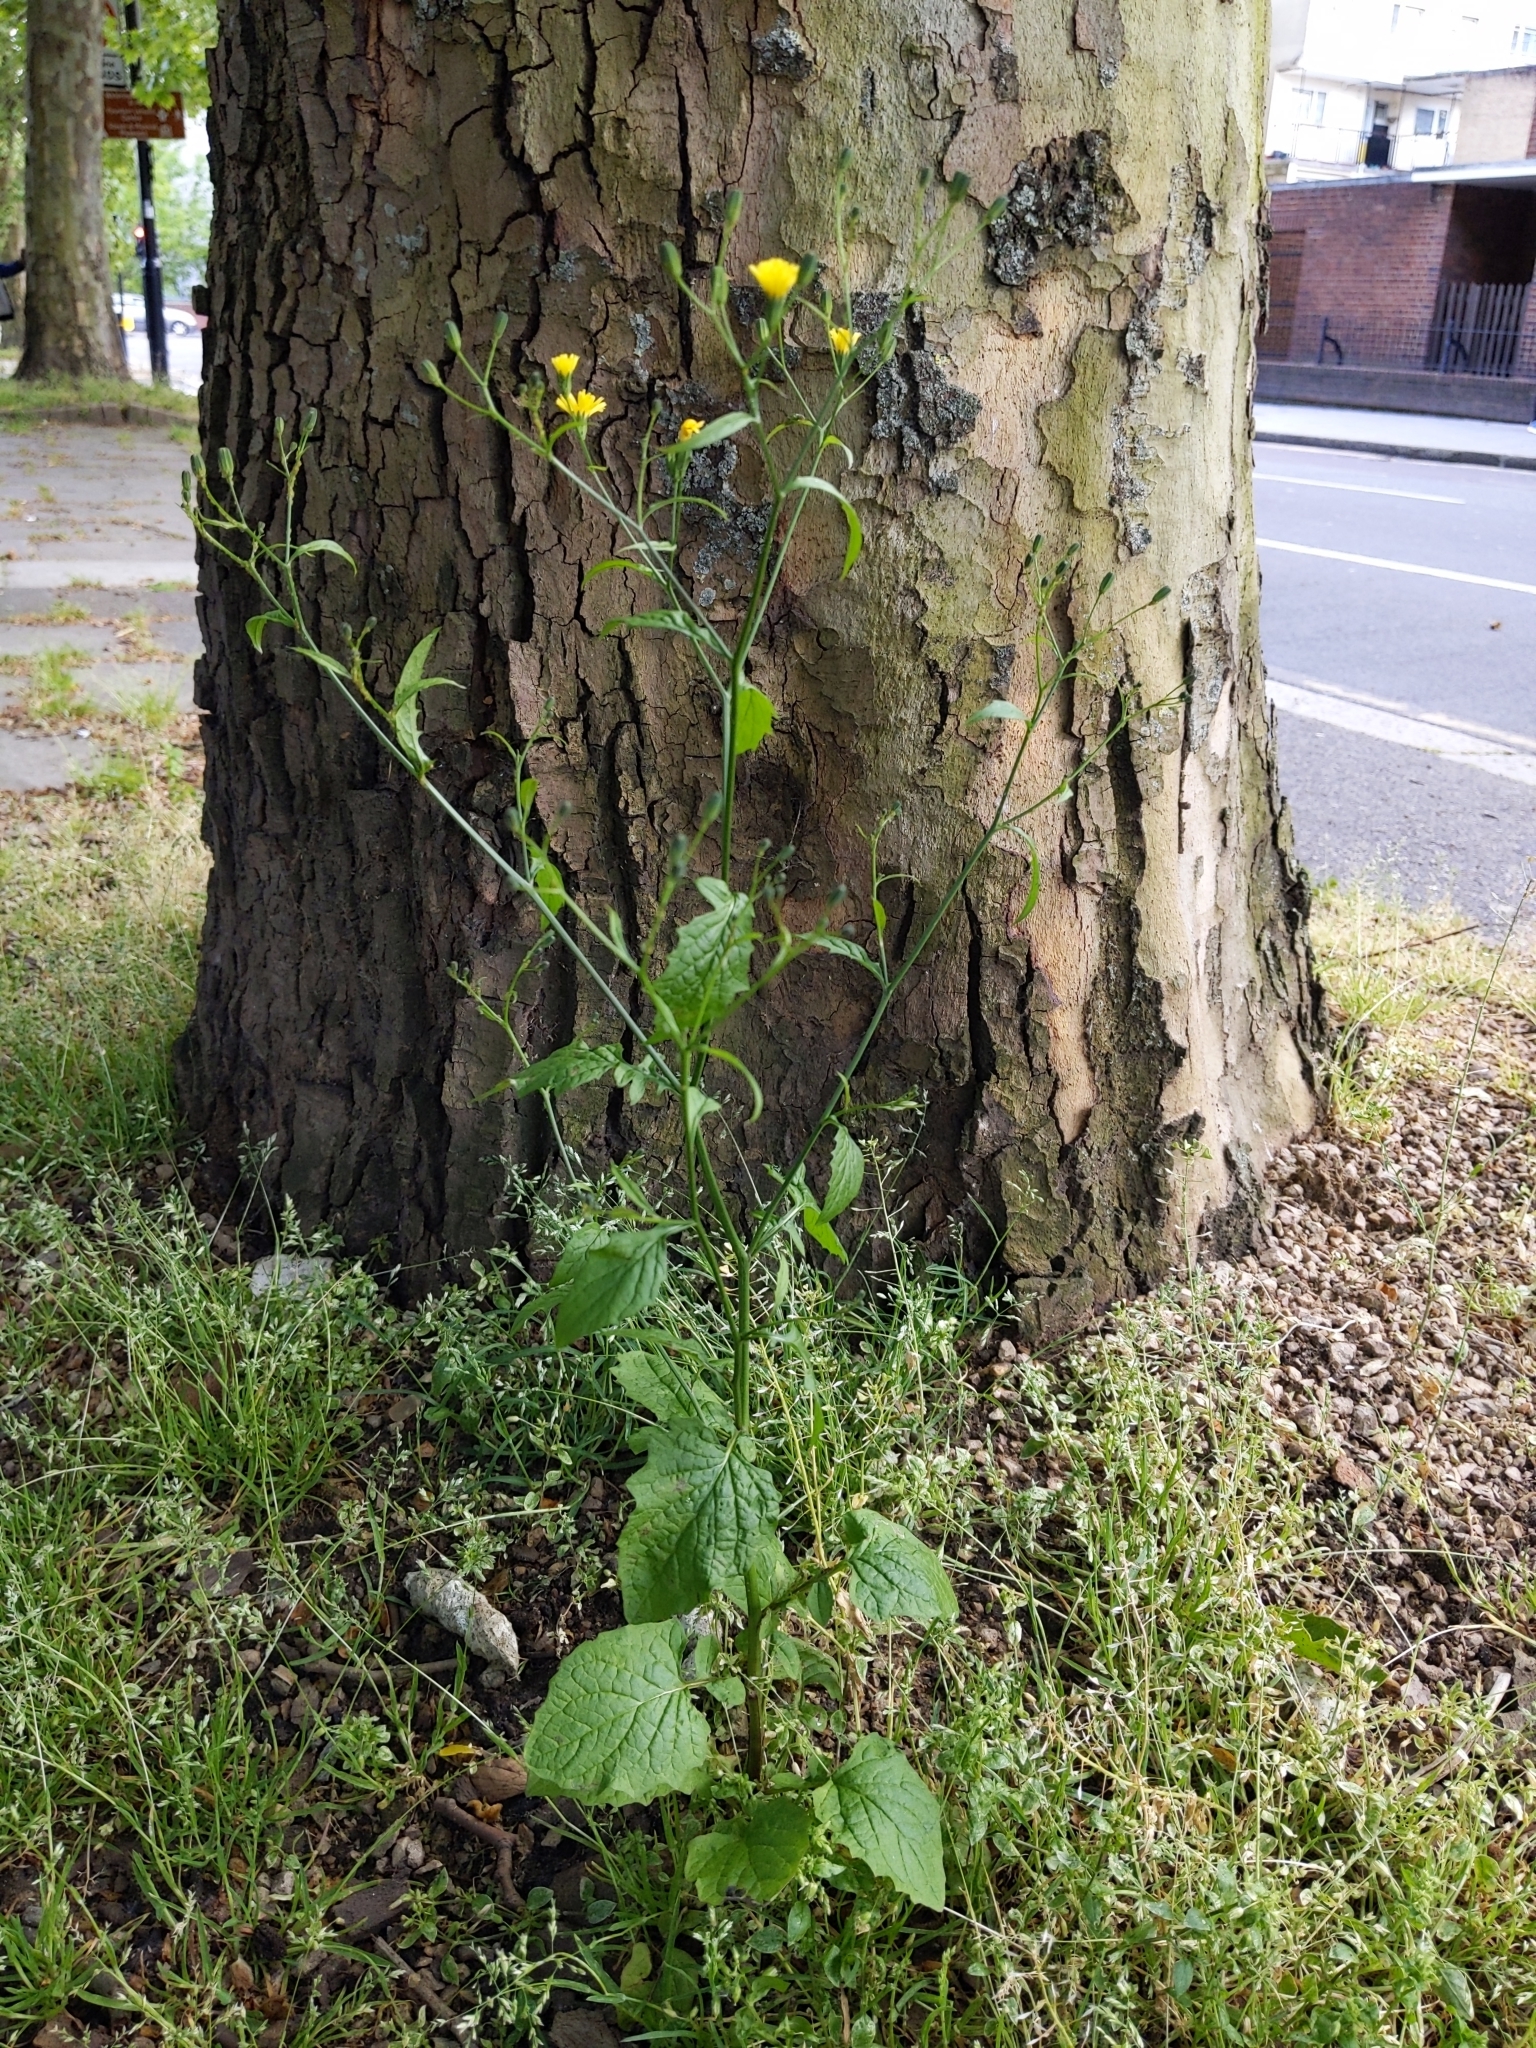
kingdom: Plantae
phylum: Tracheophyta
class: Magnoliopsida
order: Asterales
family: Asteraceae
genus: Lapsana
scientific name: Lapsana communis
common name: Nipplewort
